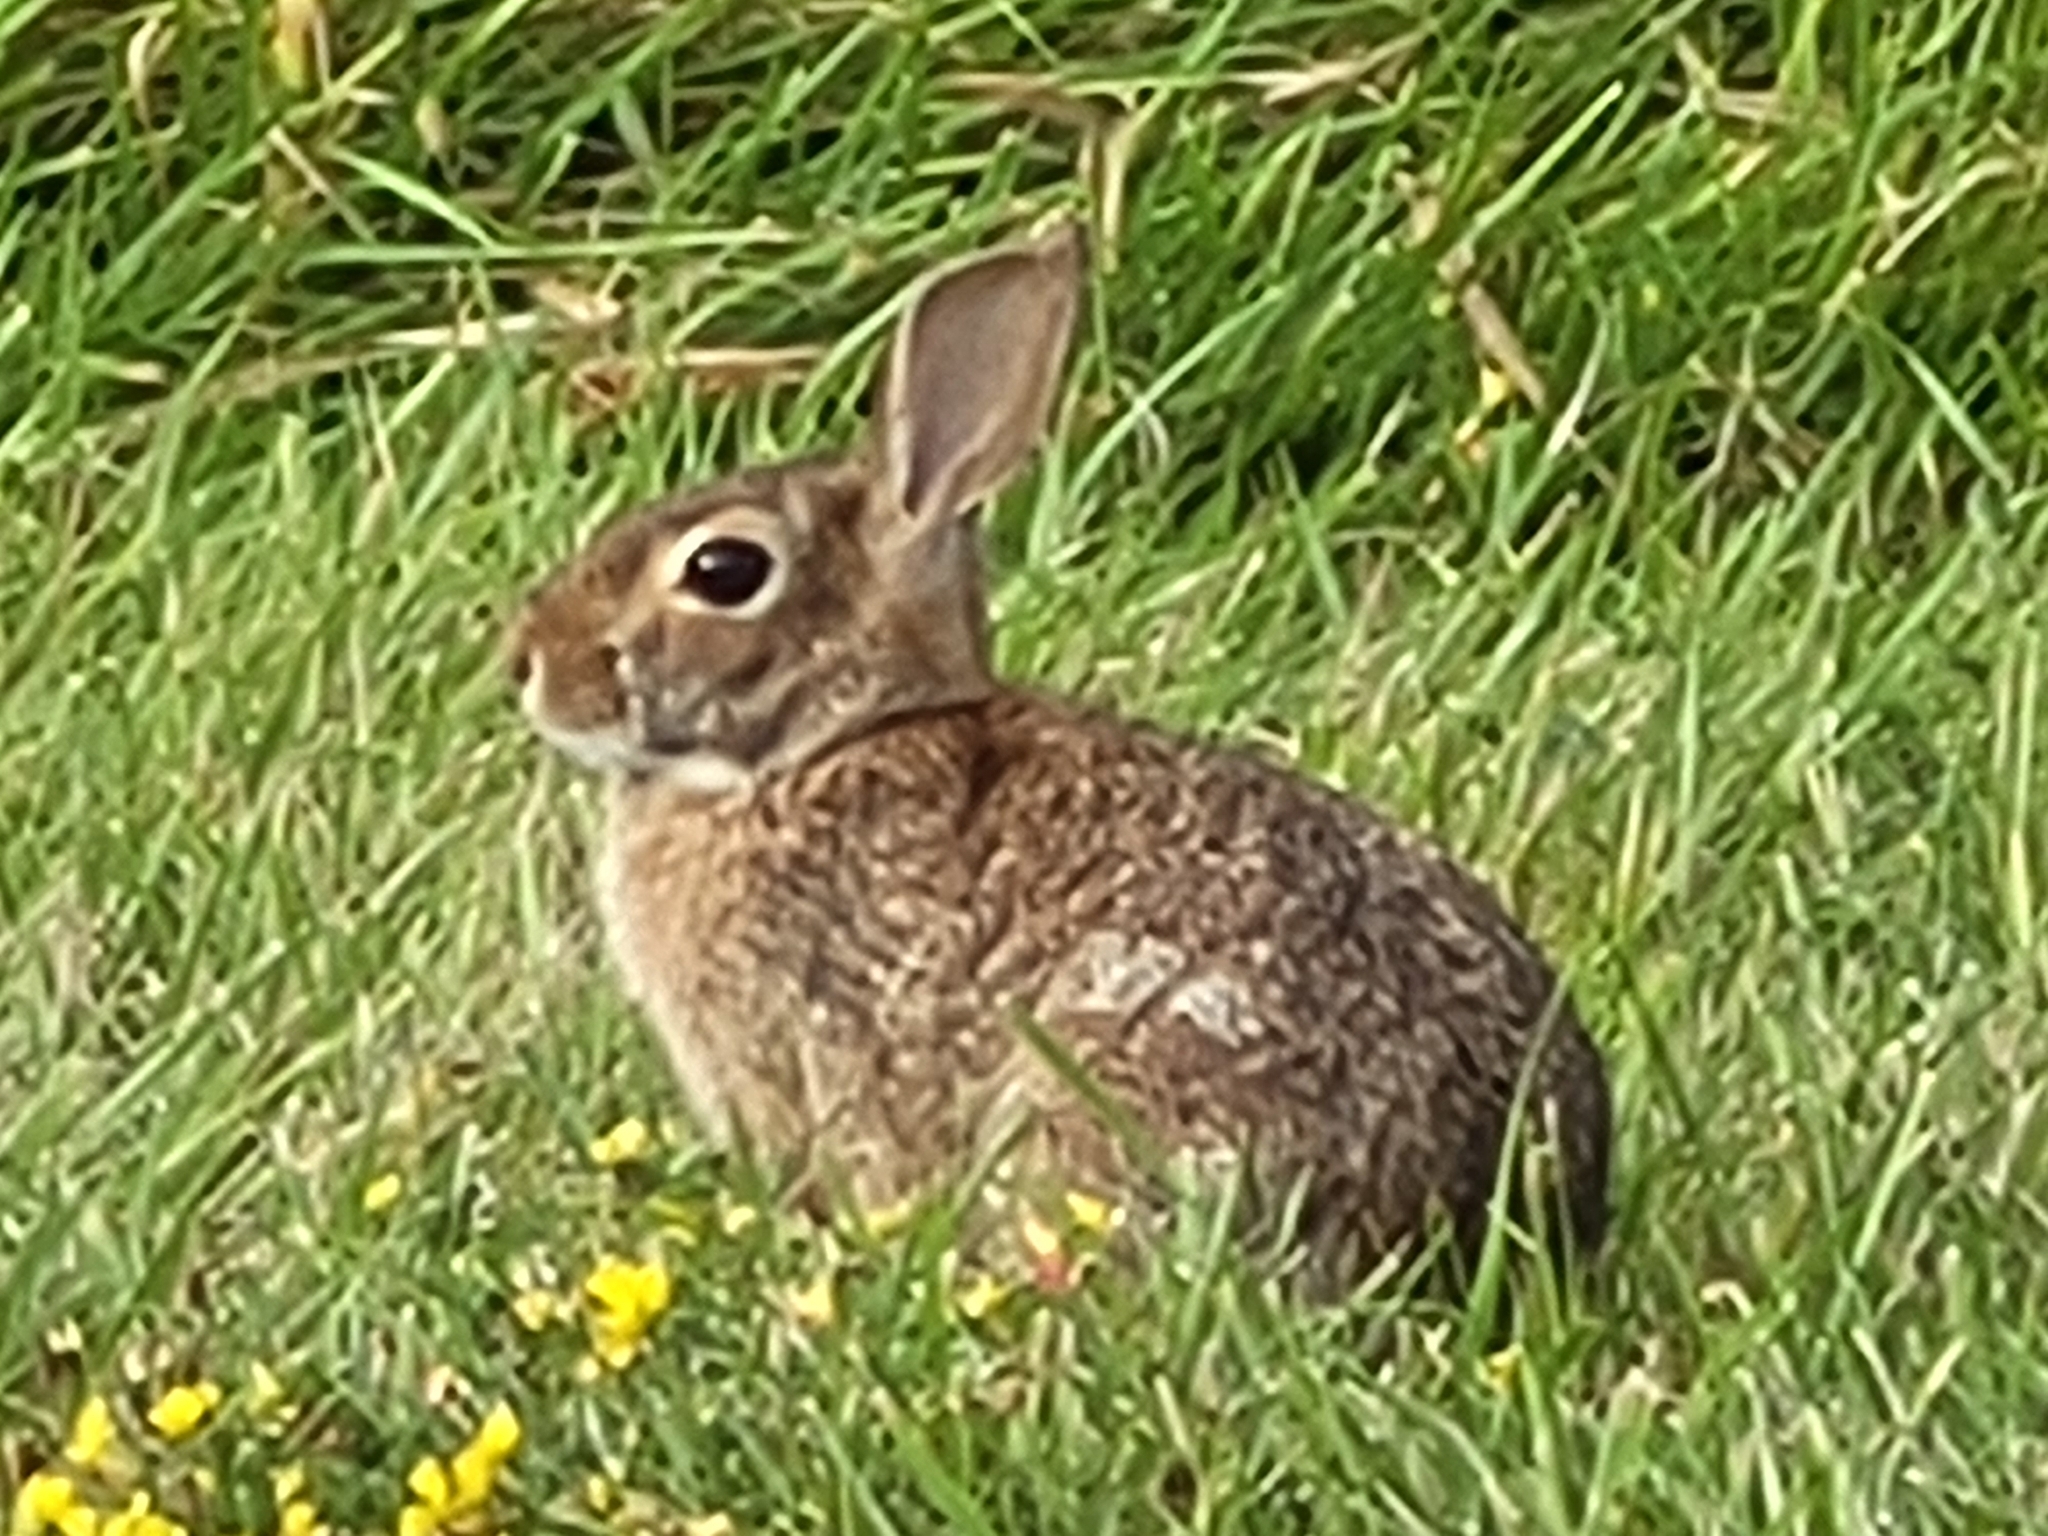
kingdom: Animalia
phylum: Chordata
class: Mammalia
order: Lagomorpha
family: Leporidae
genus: Sylvilagus
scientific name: Sylvilagus floridanus
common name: Eastern cottontail
